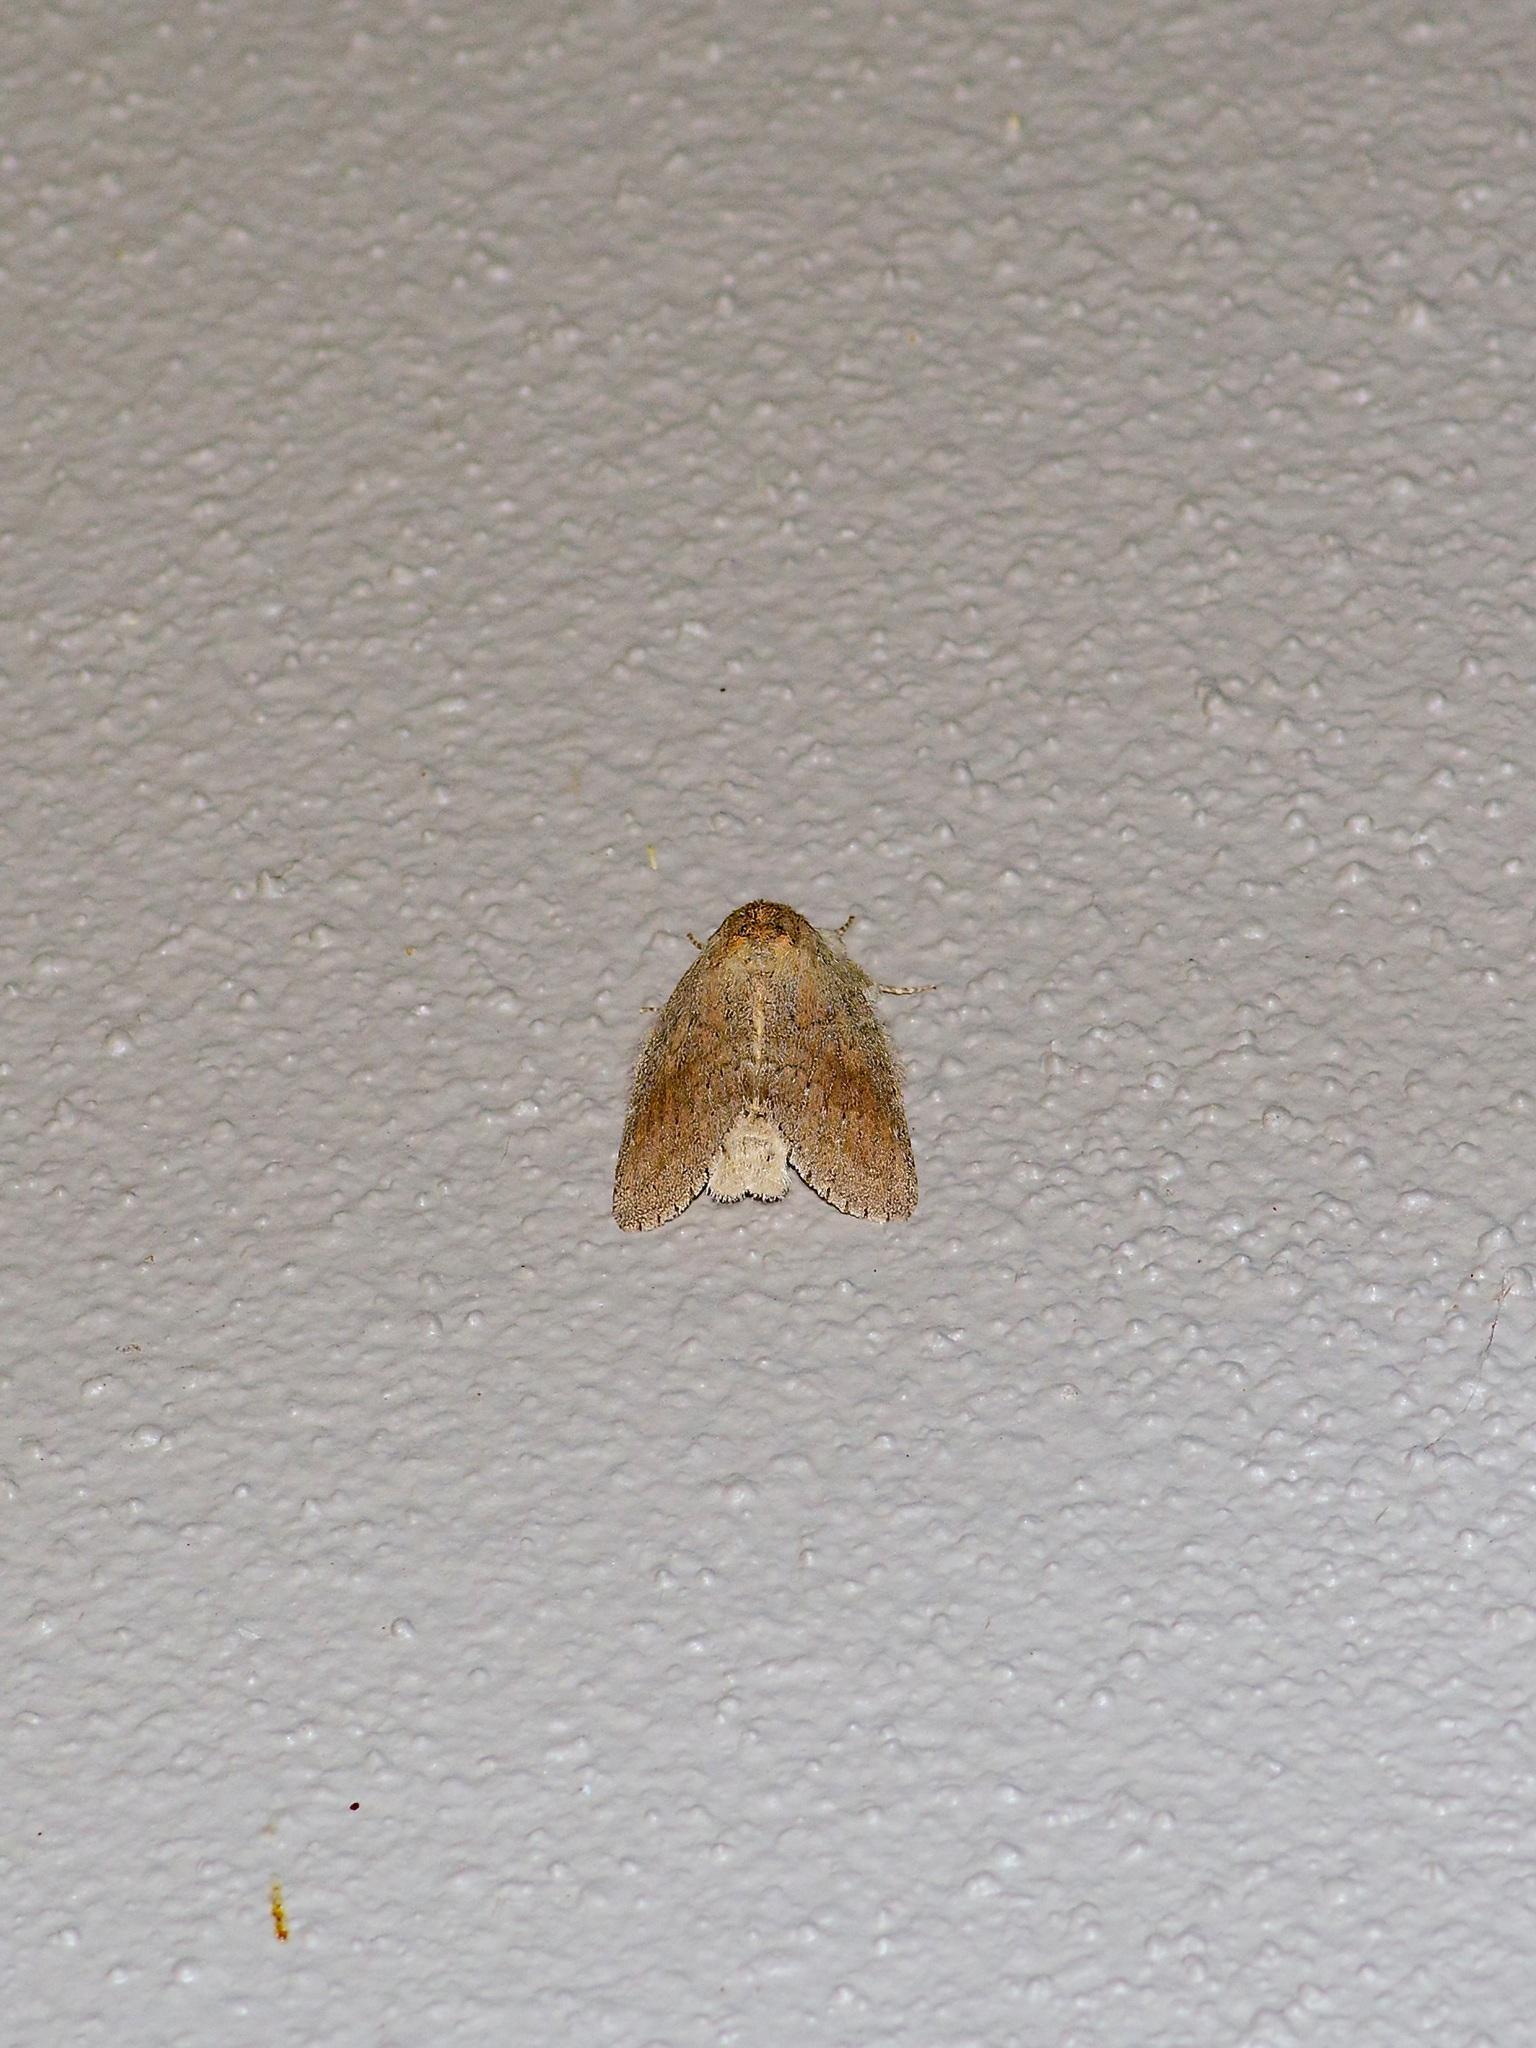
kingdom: Animalia
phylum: Arthropoda
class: Insecta
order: Lepidoptera
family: Notodontidae
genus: Misogada
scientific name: Misogada unicolor
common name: Drab prominent
